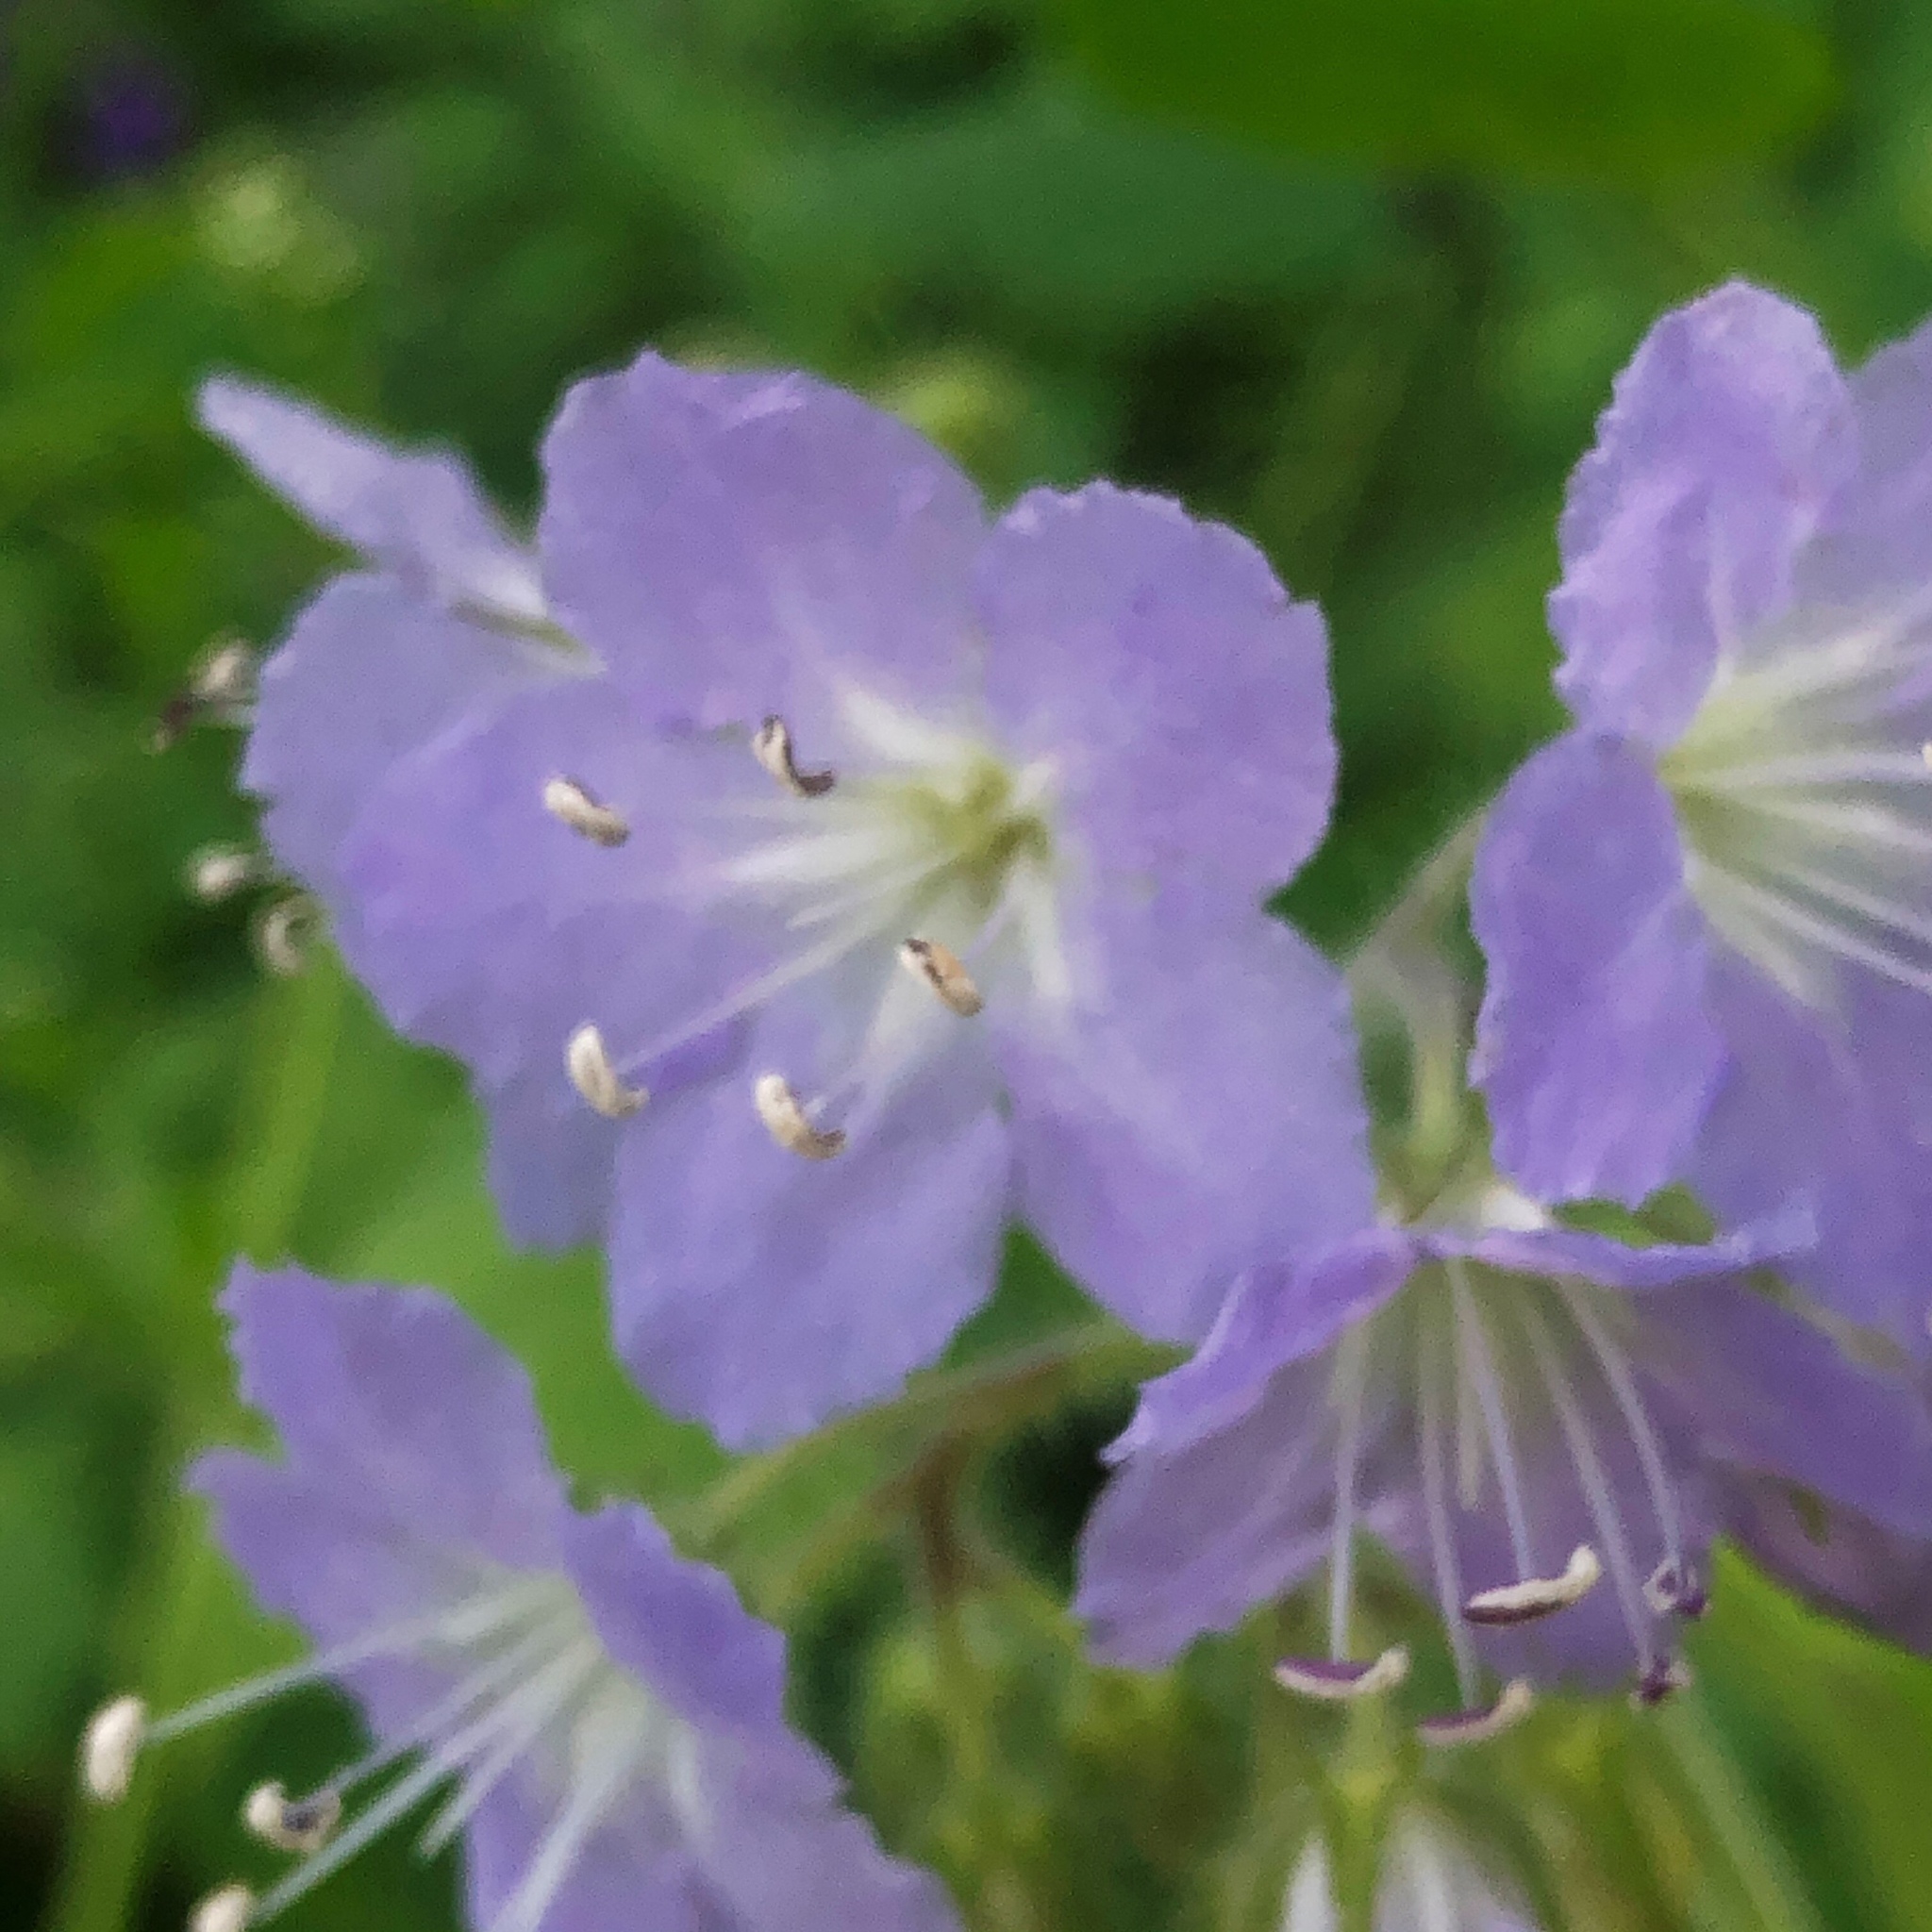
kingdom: Plantae
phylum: Tracheophyta
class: Magnoliopsida
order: Boraginales
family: Hydrophyllaceae
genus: Hydrophyllum
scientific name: Hydrophyllum appendiculatum
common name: Appendaged waterleaf
